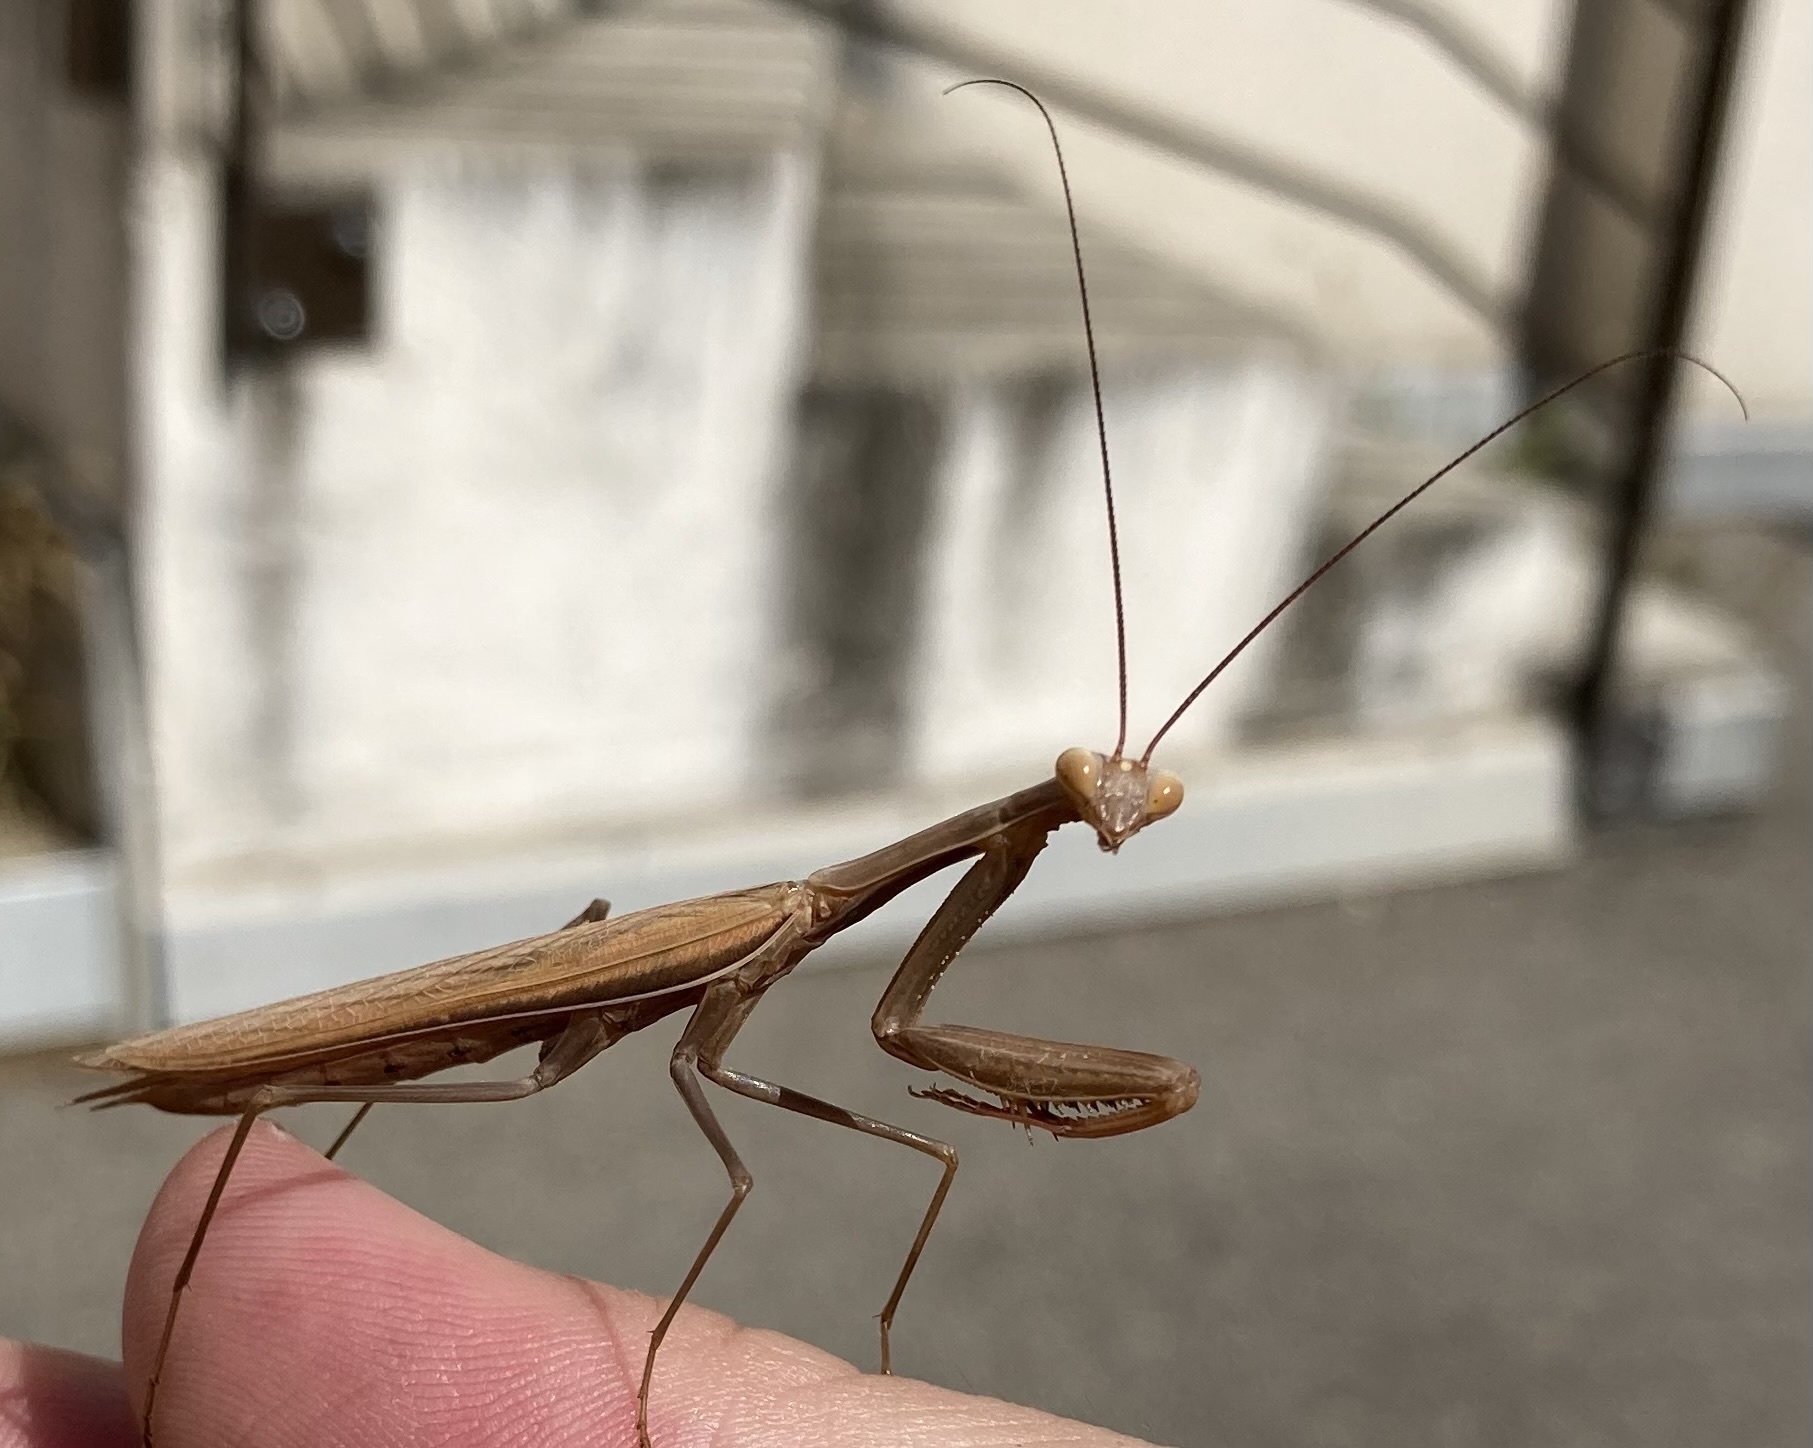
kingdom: Animalia
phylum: Arthropoda
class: Insecta
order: Mantodea
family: Mantidae
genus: Mantis
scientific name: Mantis religiosa
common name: Praying mantis
